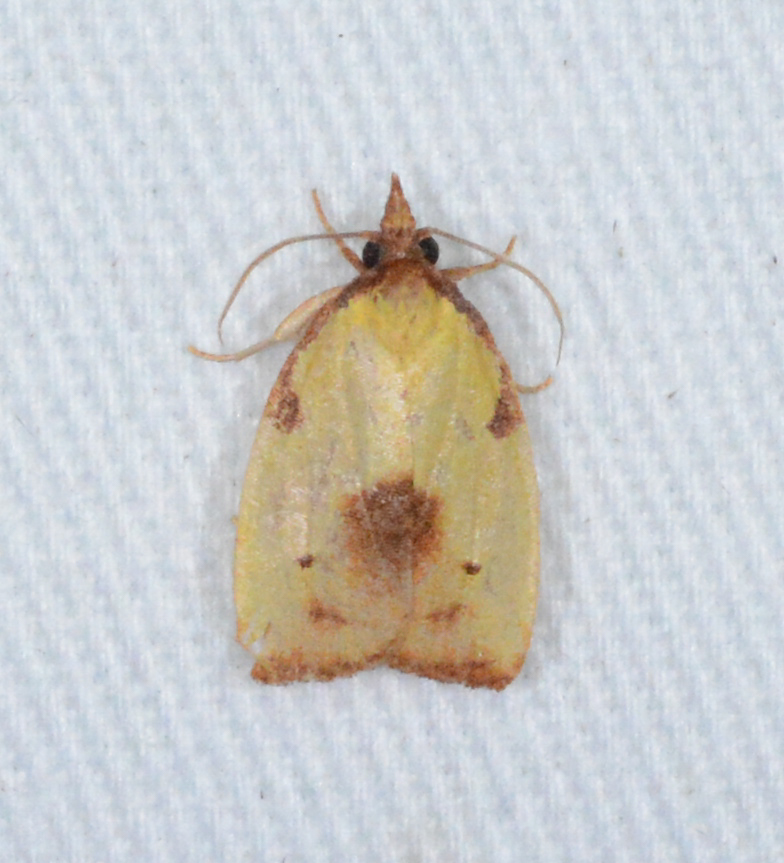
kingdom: Animalia
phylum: Arthropoda
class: Insecta
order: Lepidoptera
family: Tortricidae
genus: Cenopis
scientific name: Cenopis lamberti
